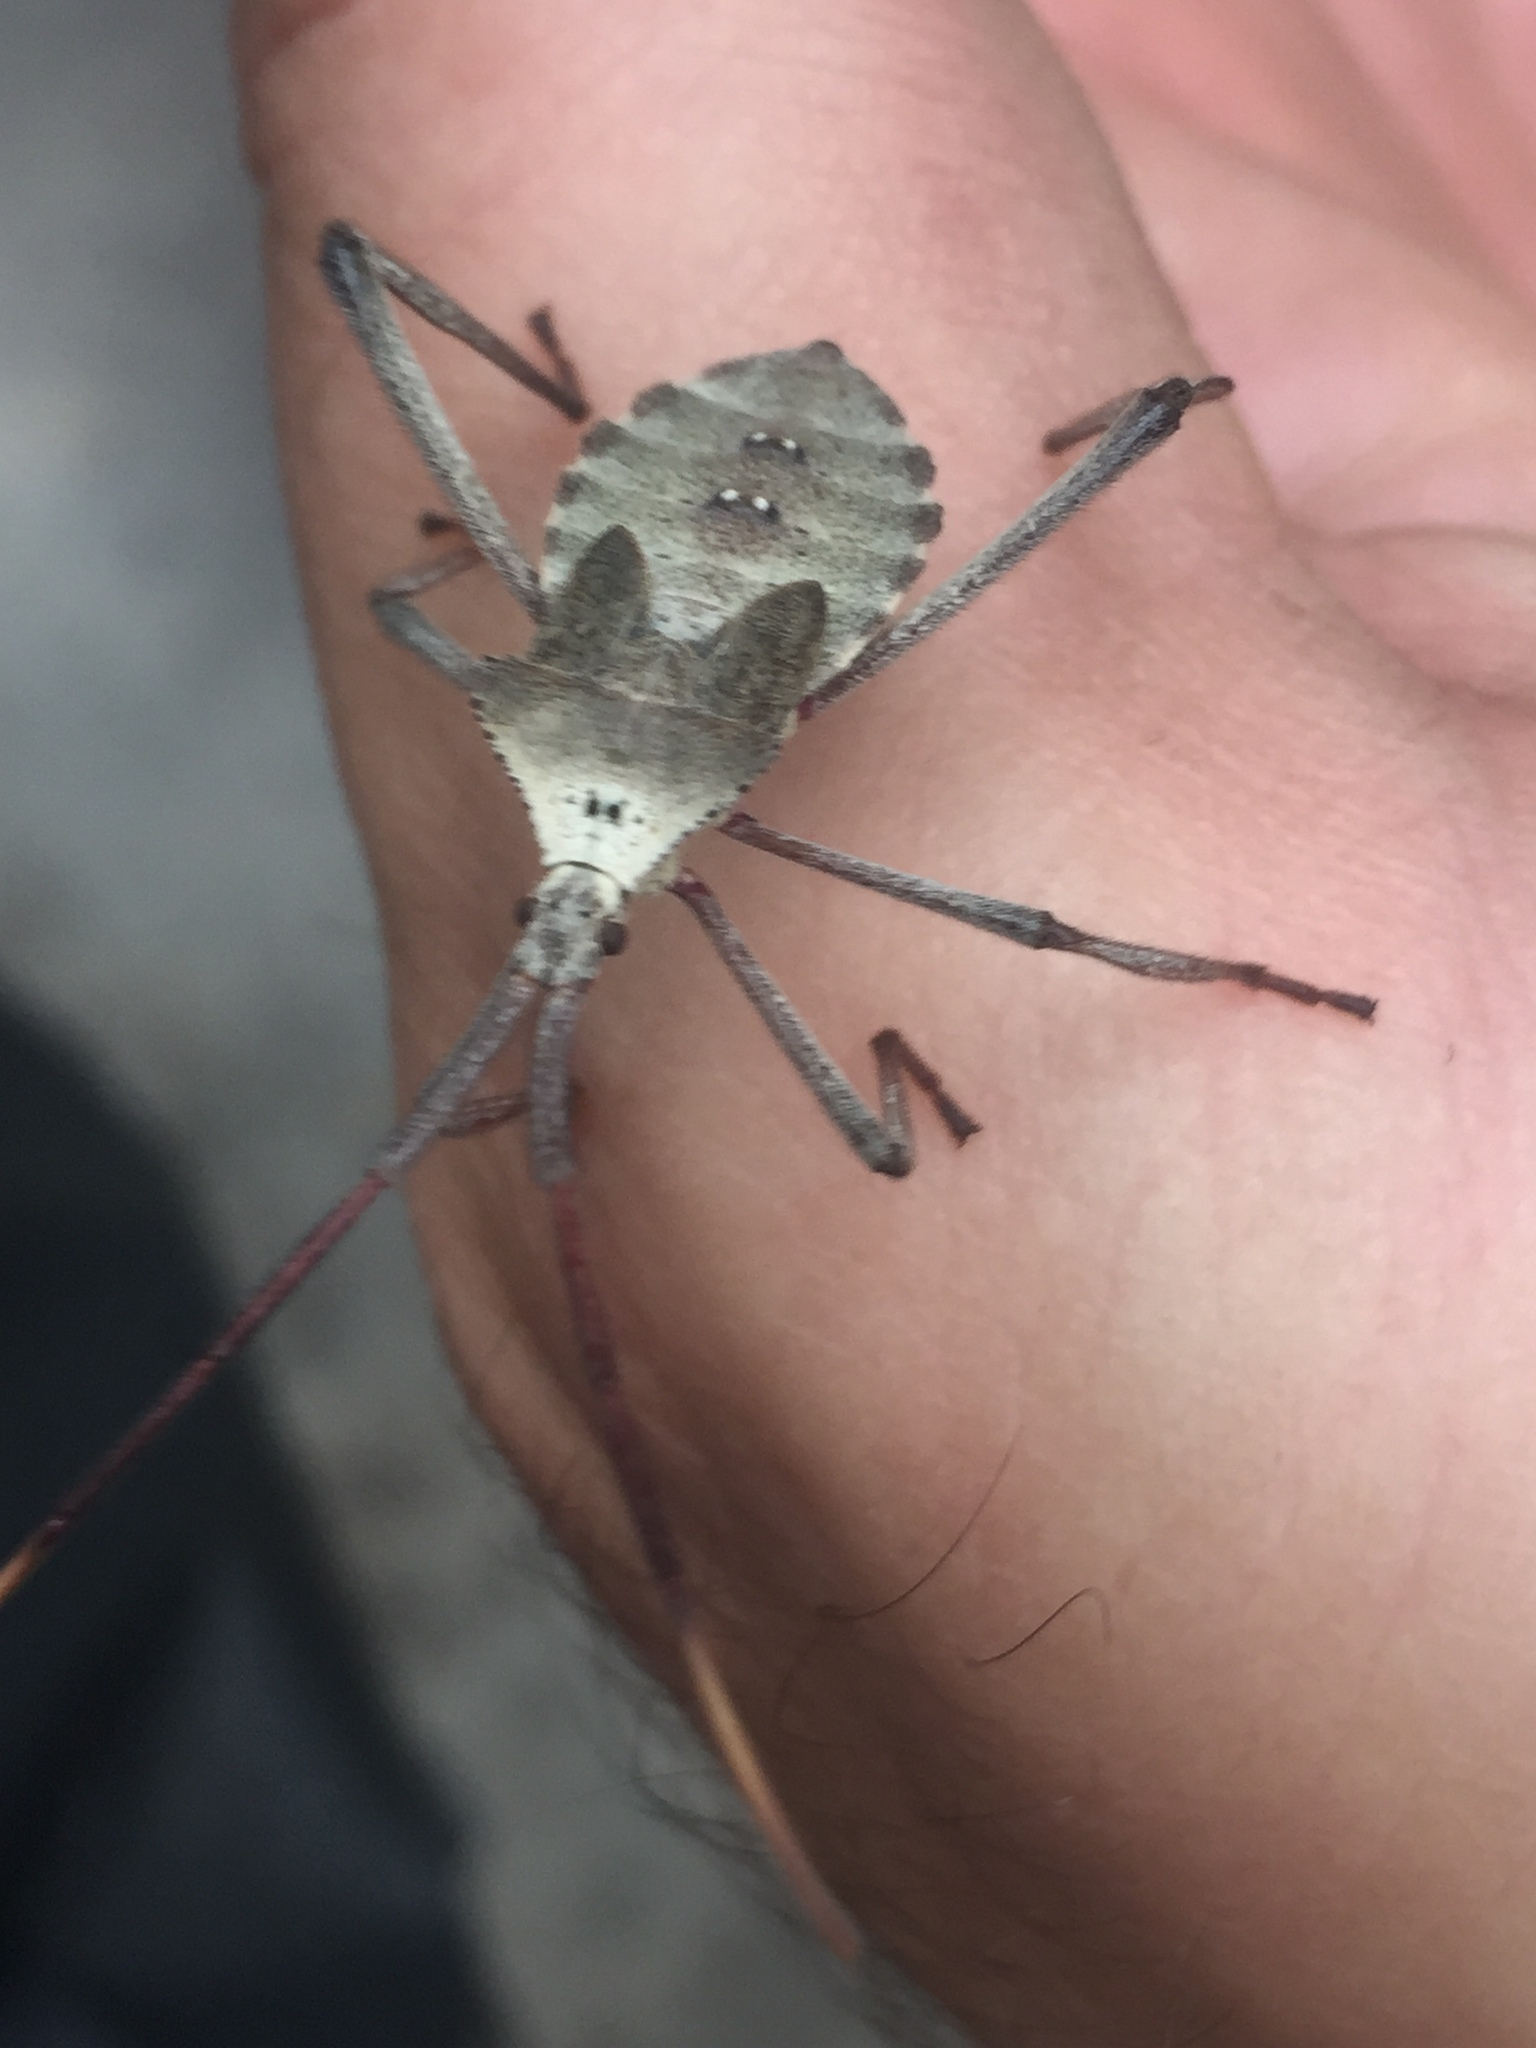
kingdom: Animalia
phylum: Arthropoda
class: Insecta
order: Hemiptera
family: Coreidae
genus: Acanthocephala
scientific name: Acanthocephala declivis
